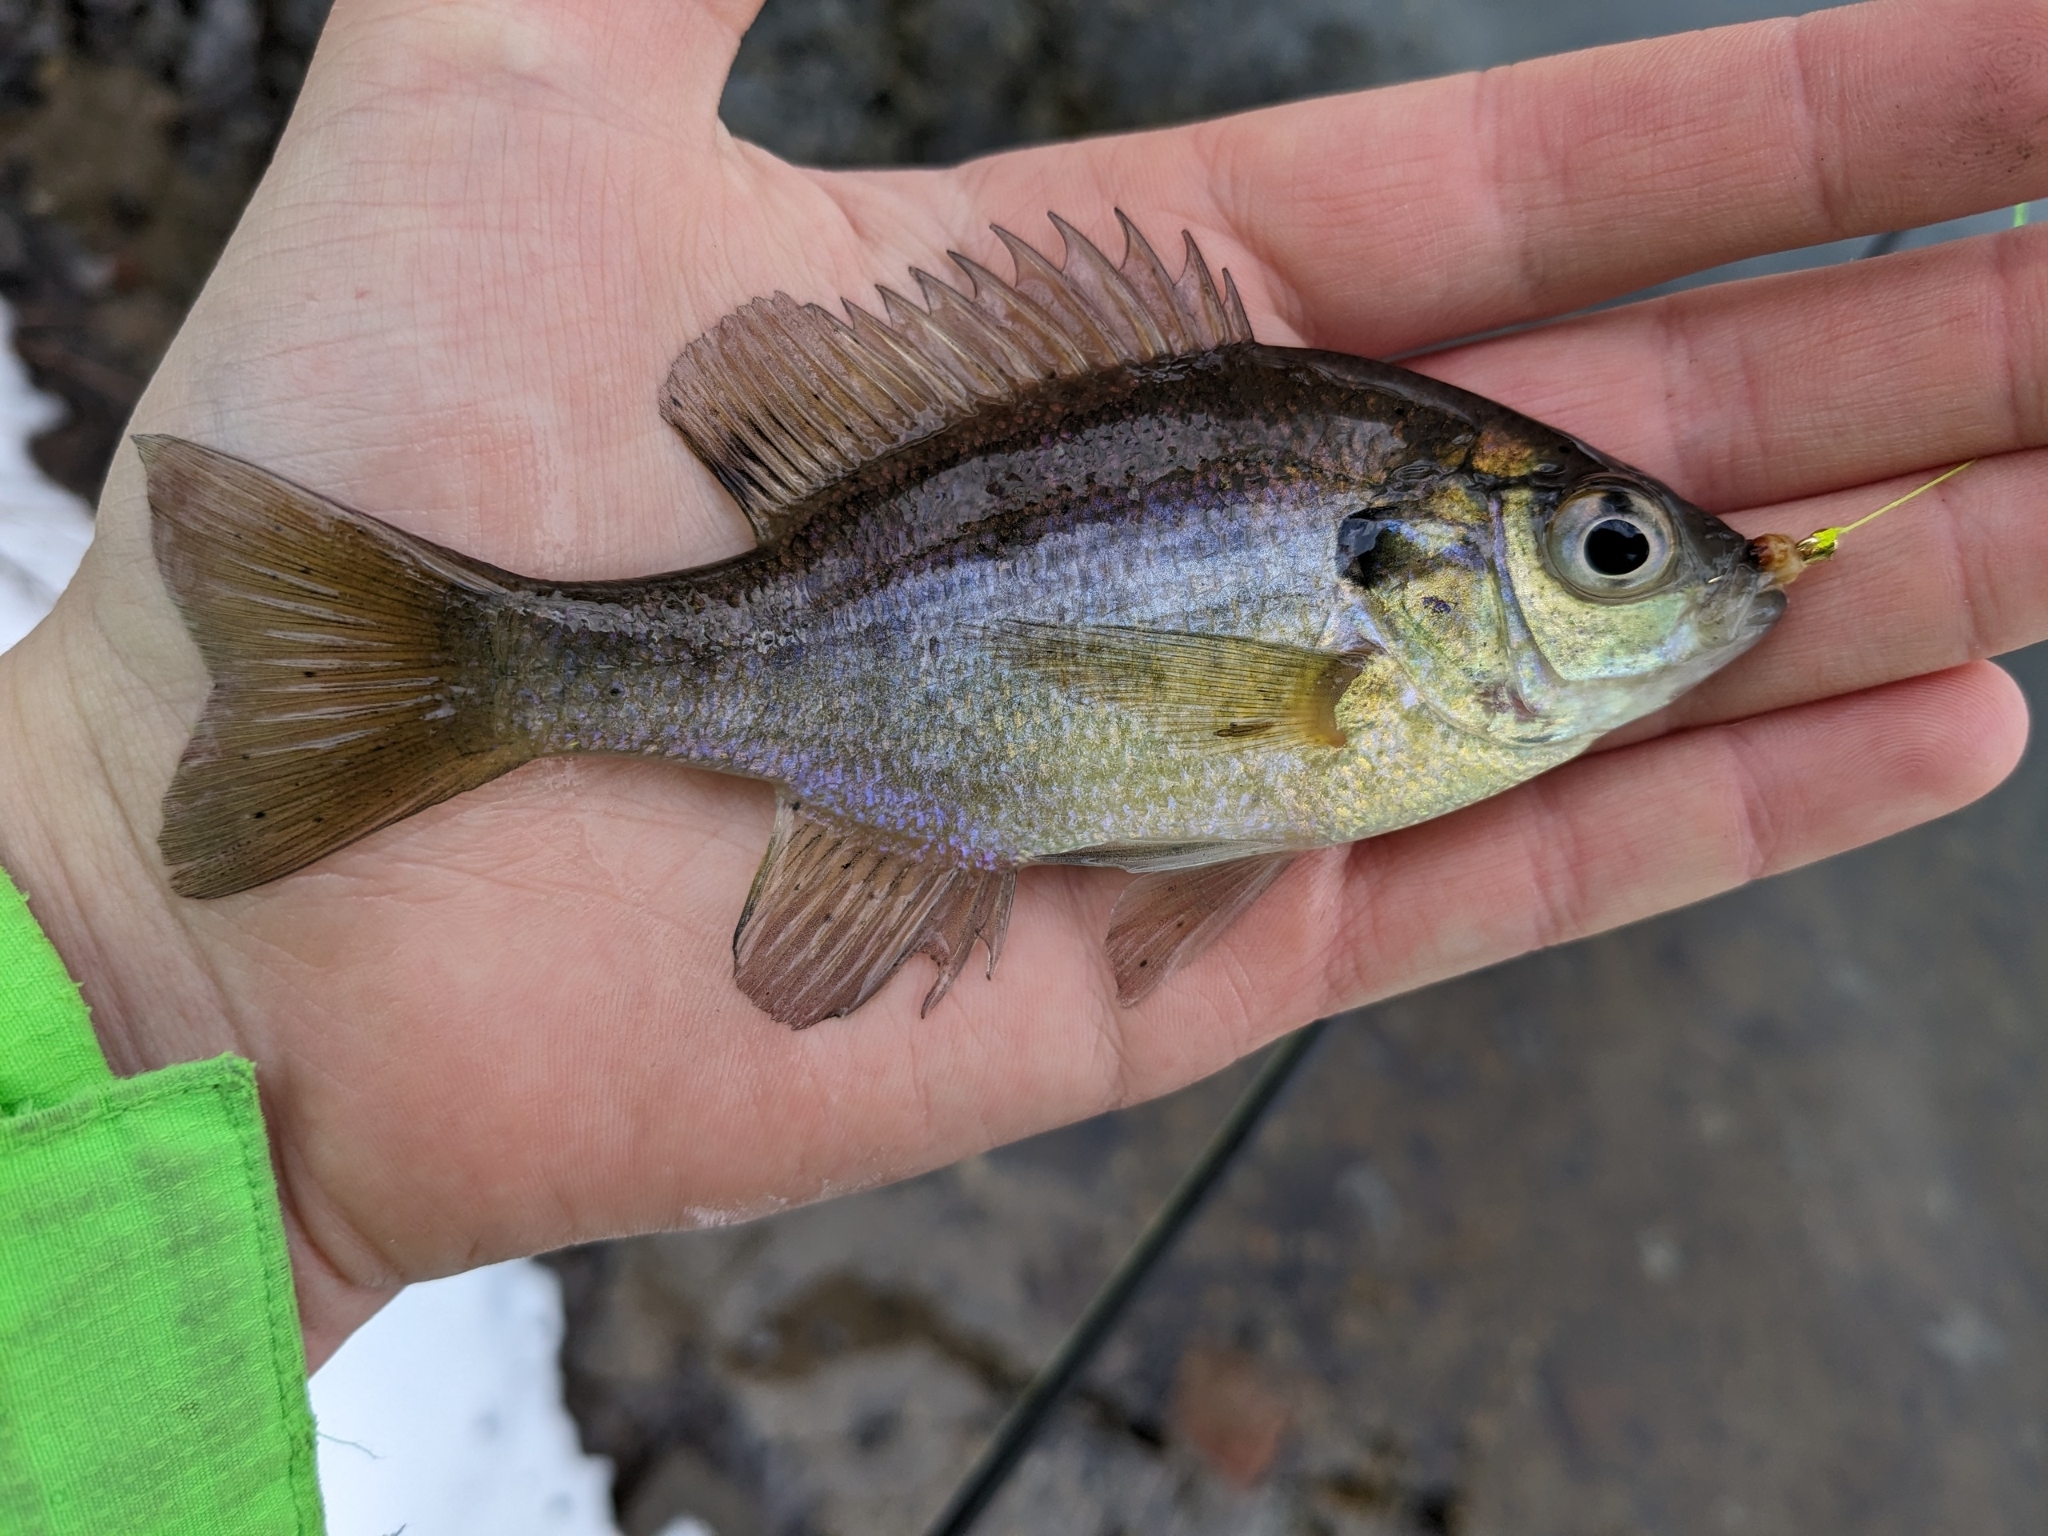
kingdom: Animalia
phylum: Chordata
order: Perciformes
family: Centrarchidae
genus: Lepomis
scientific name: Lepomis macrochirus
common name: Bluegill
